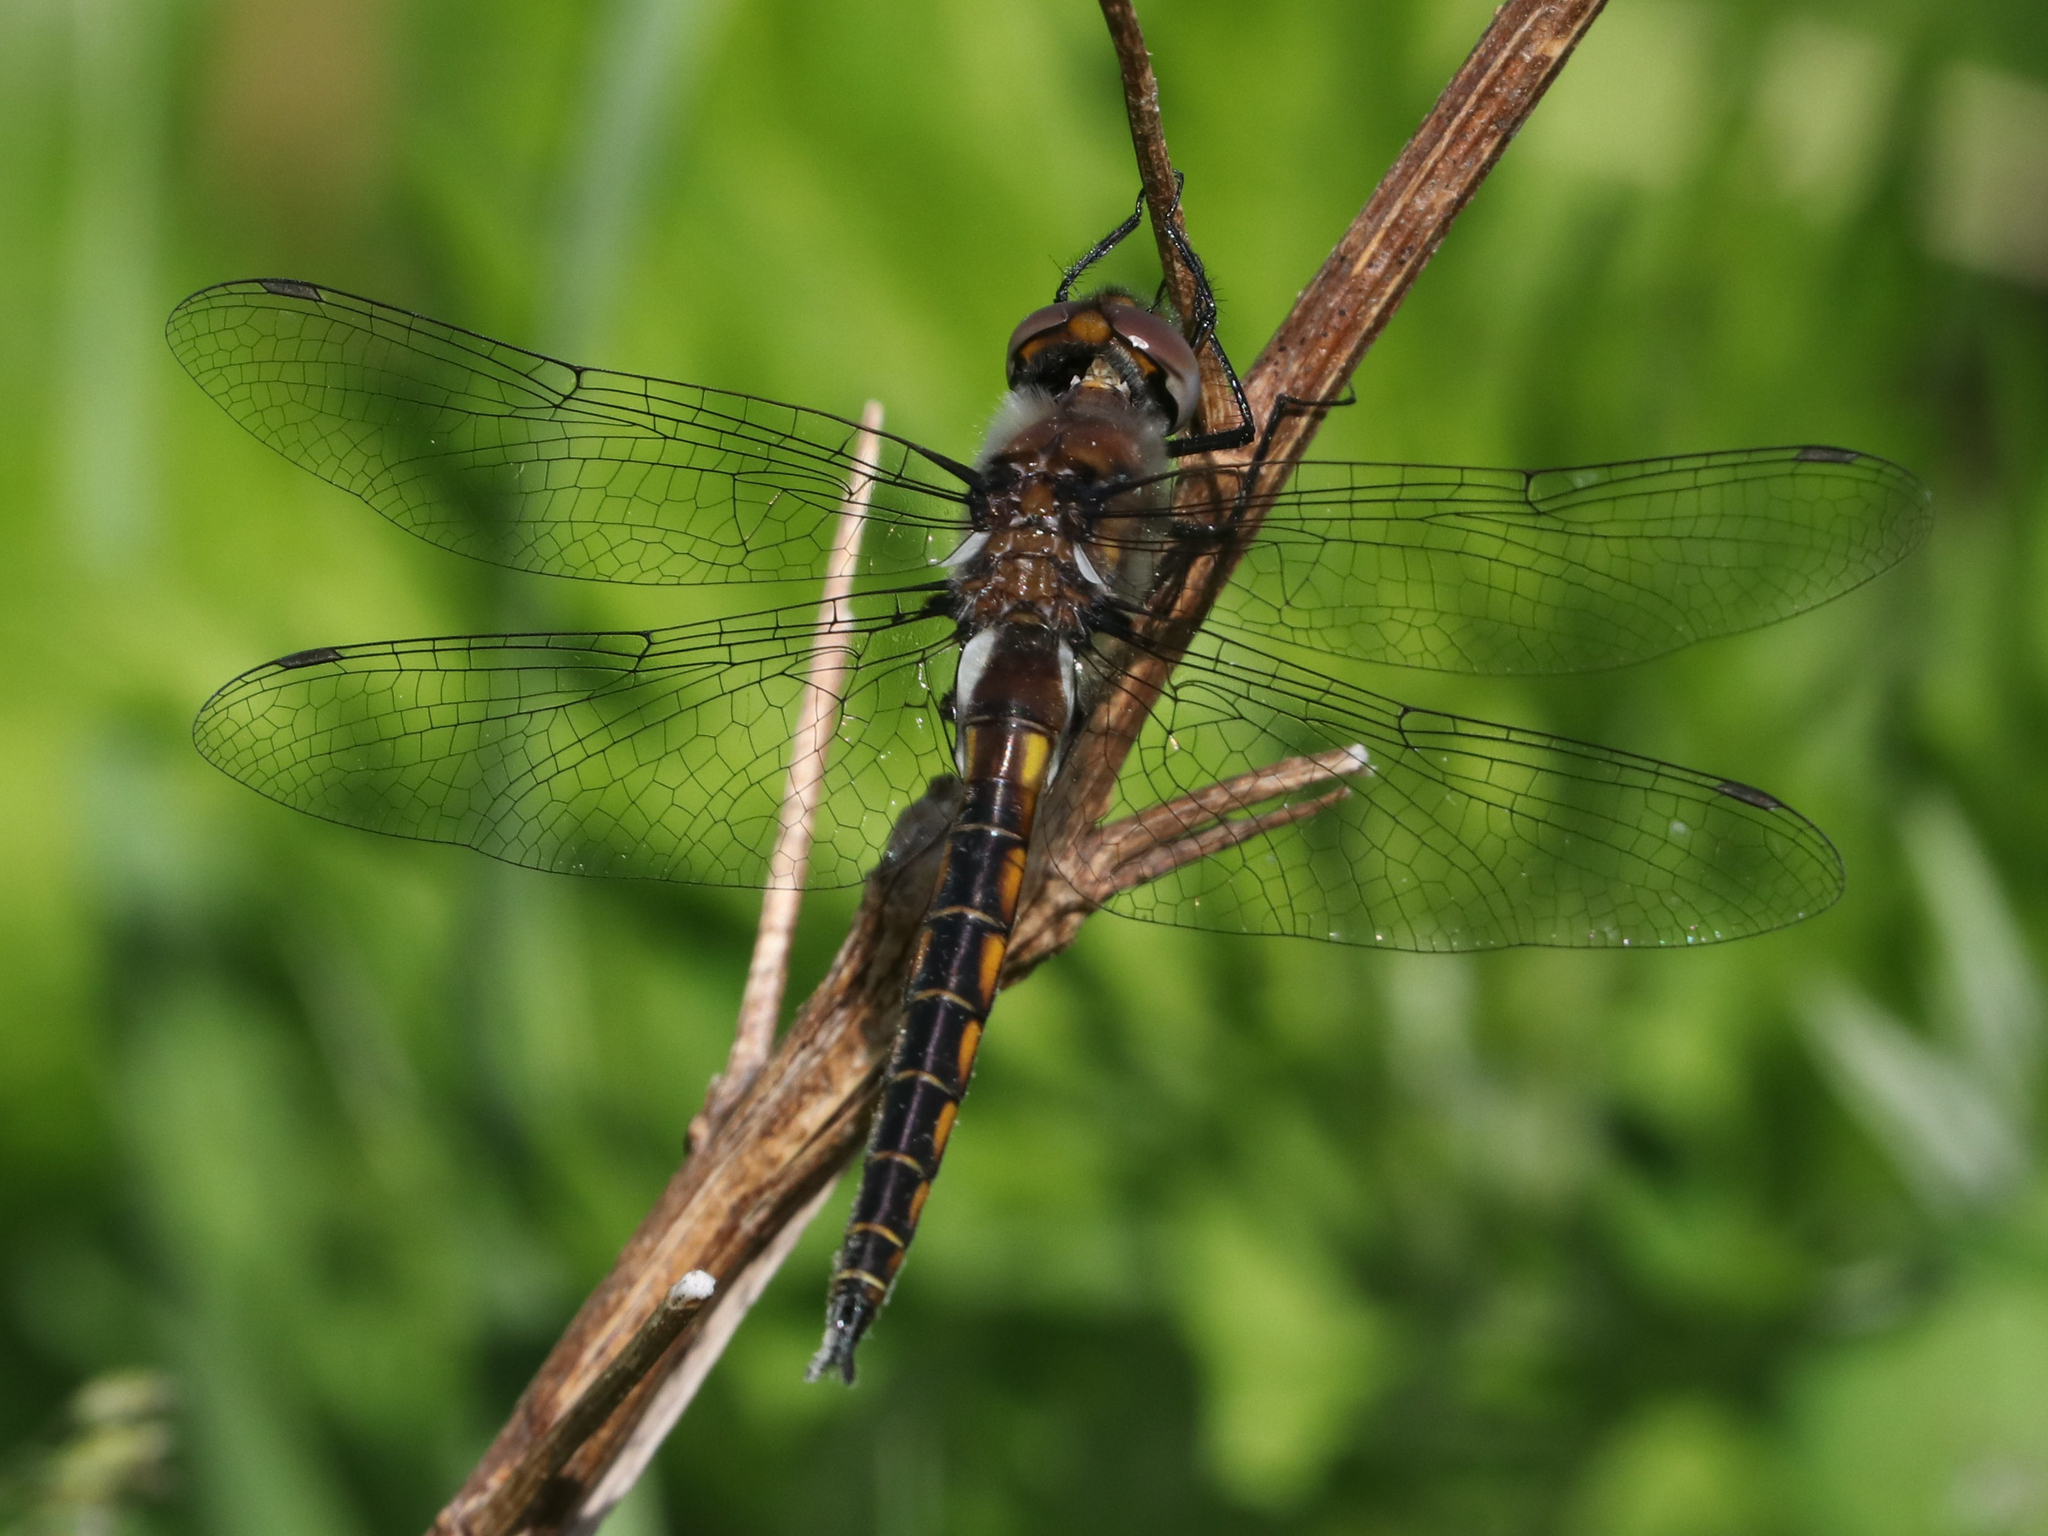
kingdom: Animalia
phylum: Arthropoda
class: Insecta
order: Odonata
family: Corduliidae
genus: Epitheca
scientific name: Epitheca cynosura
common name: Common baskettail
